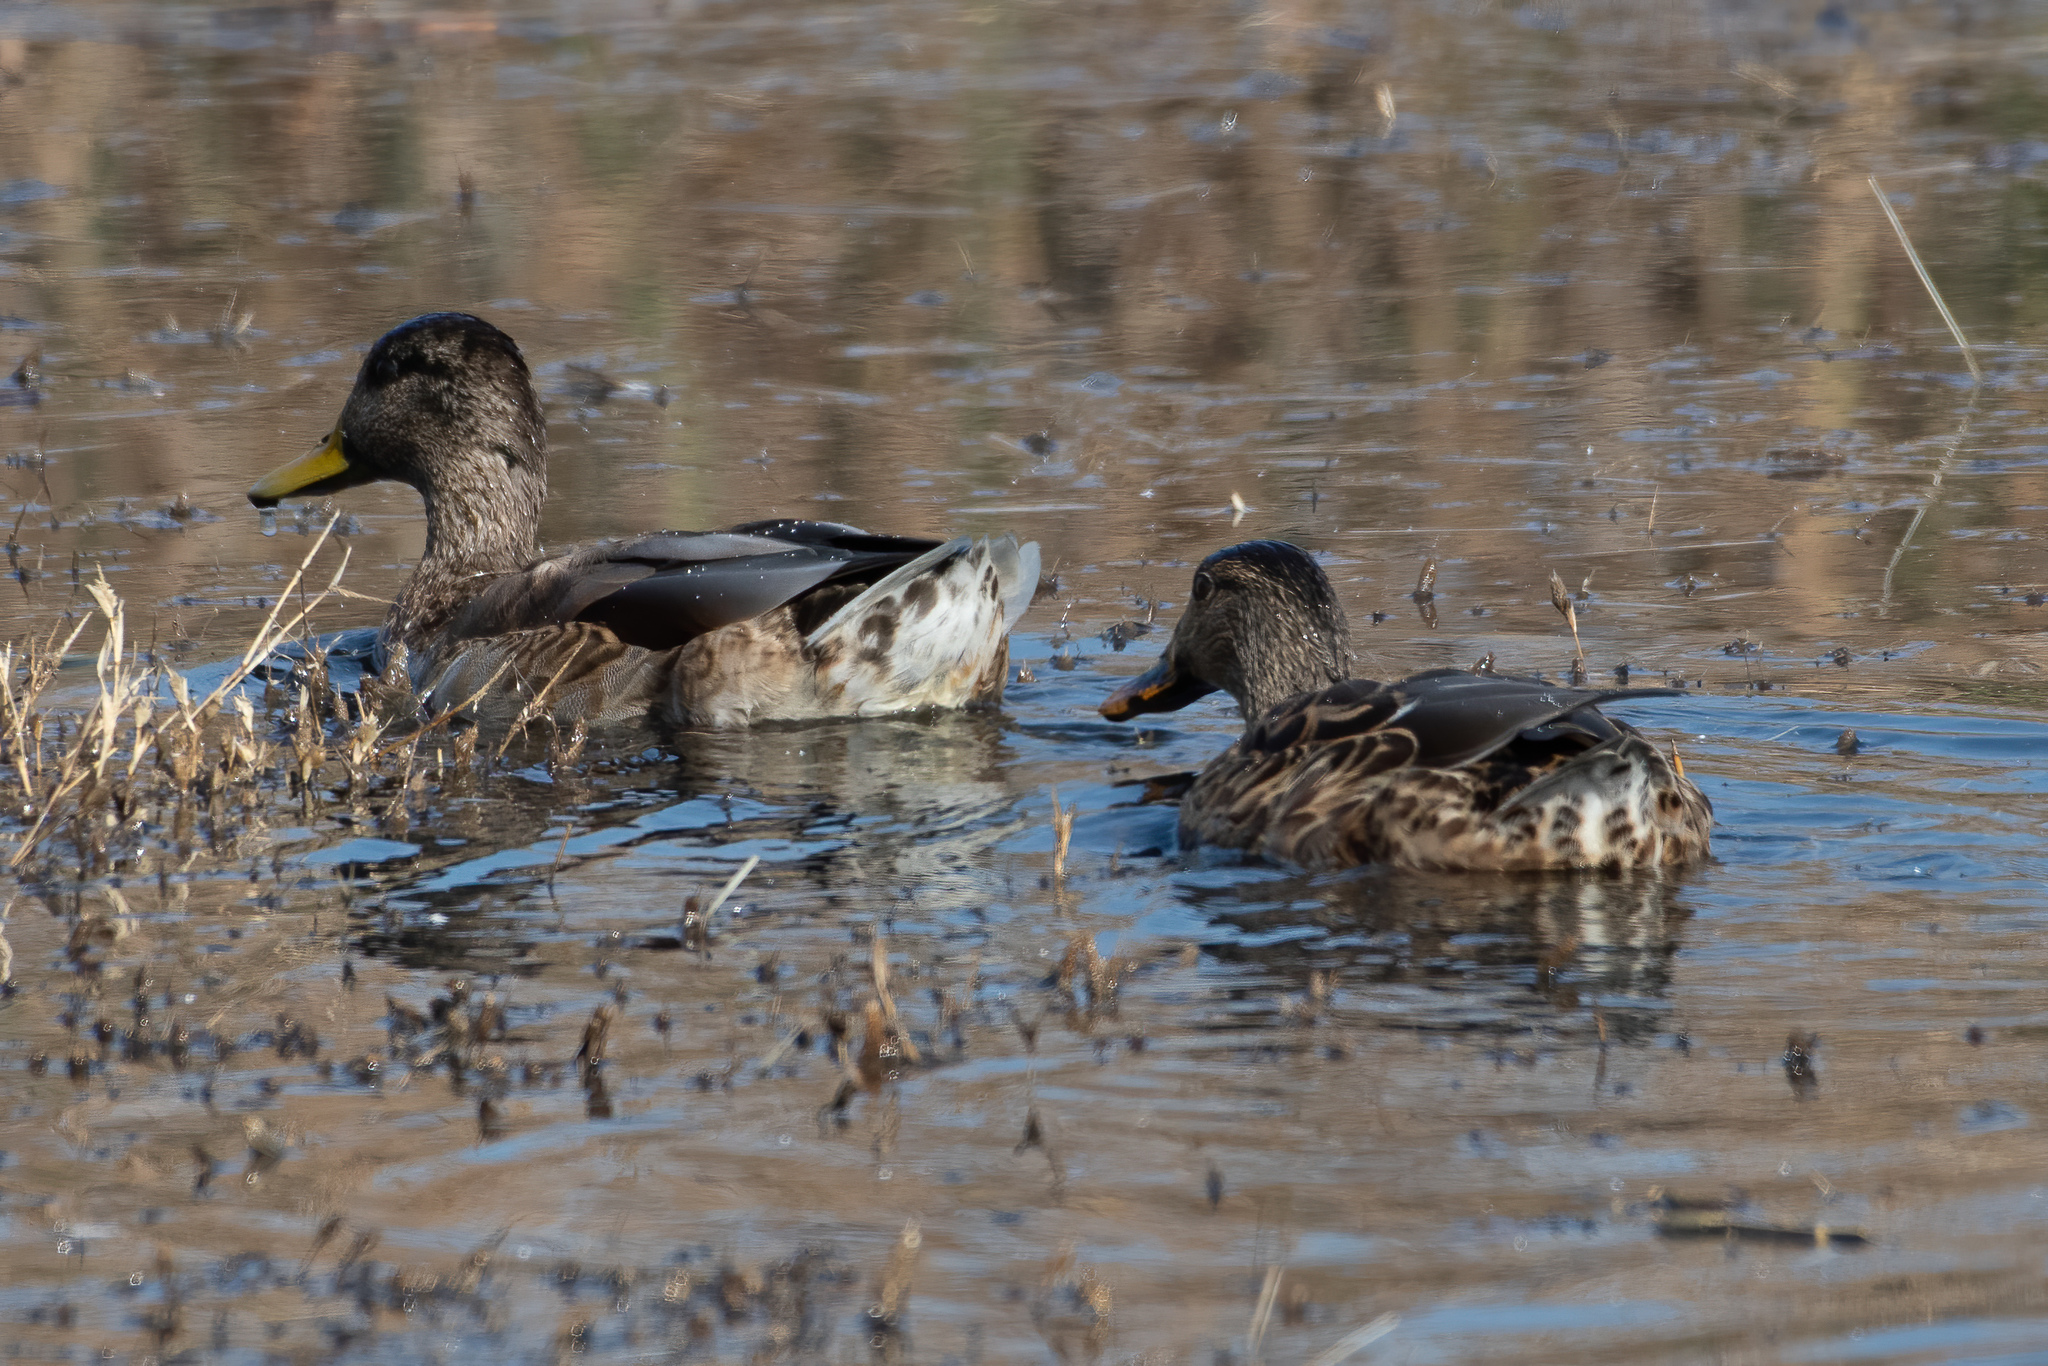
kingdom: Animalia
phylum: Chordata
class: Aves
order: Anseriformes
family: Anatidae
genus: Anas
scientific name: Anas platyrhynchos
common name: Mallard
